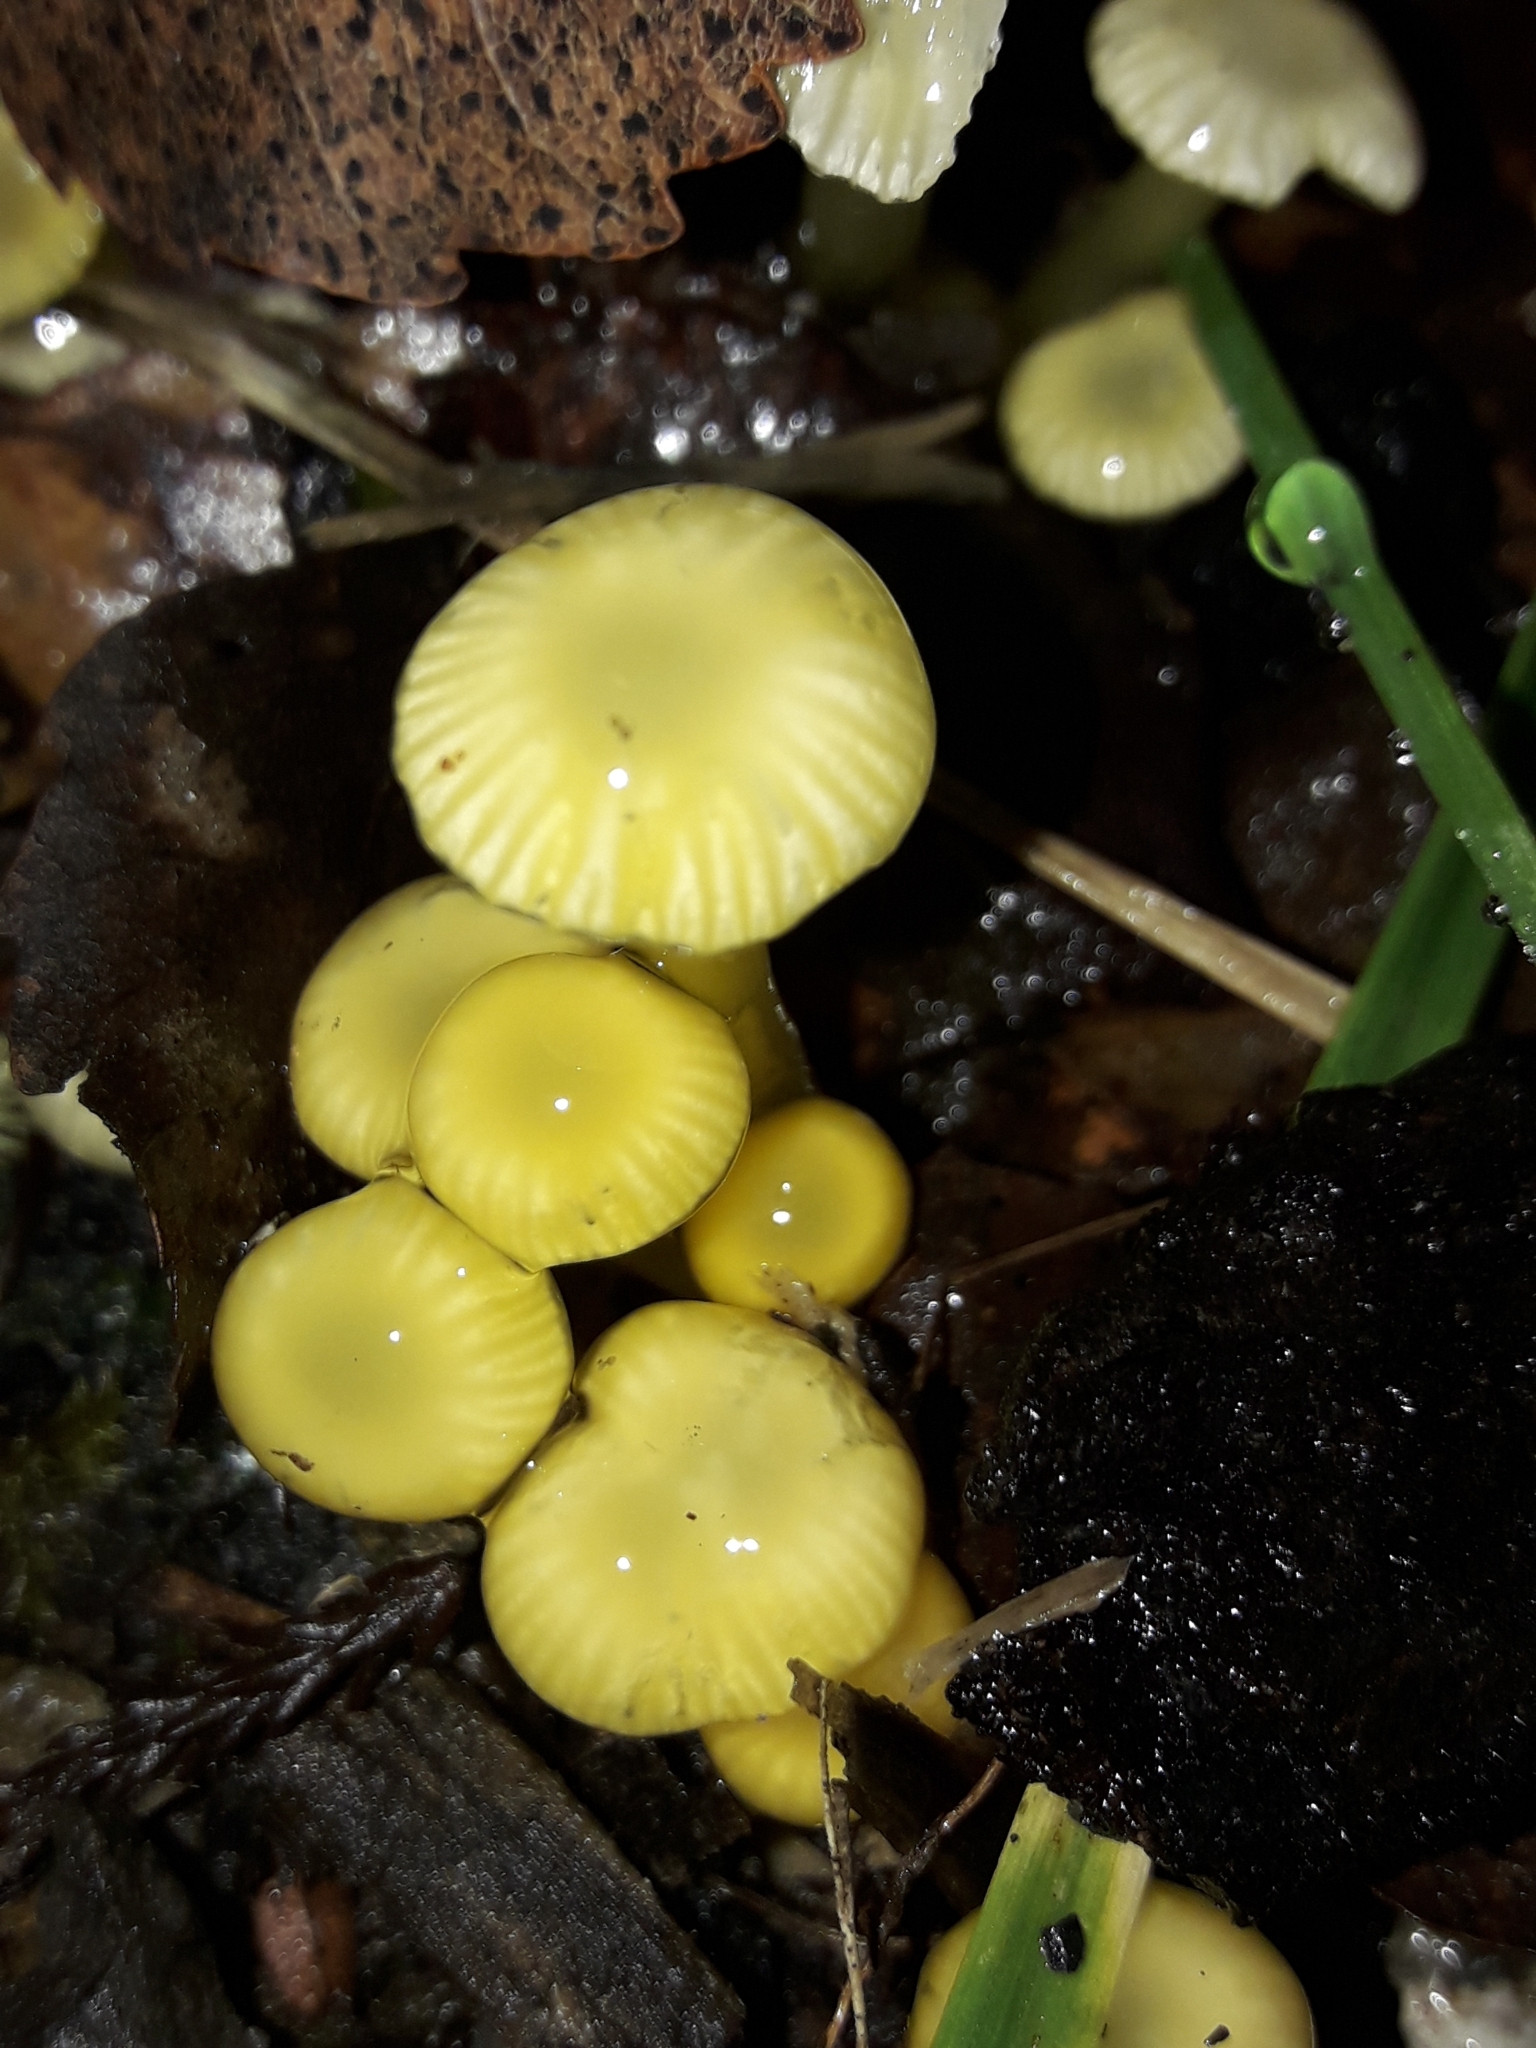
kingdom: Fungi
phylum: Basidiomycota
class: Agaricomycetes
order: Agaricales
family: Hygrophoraceae
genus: Gloioxanthomyces
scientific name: Gloioxanthomyces
